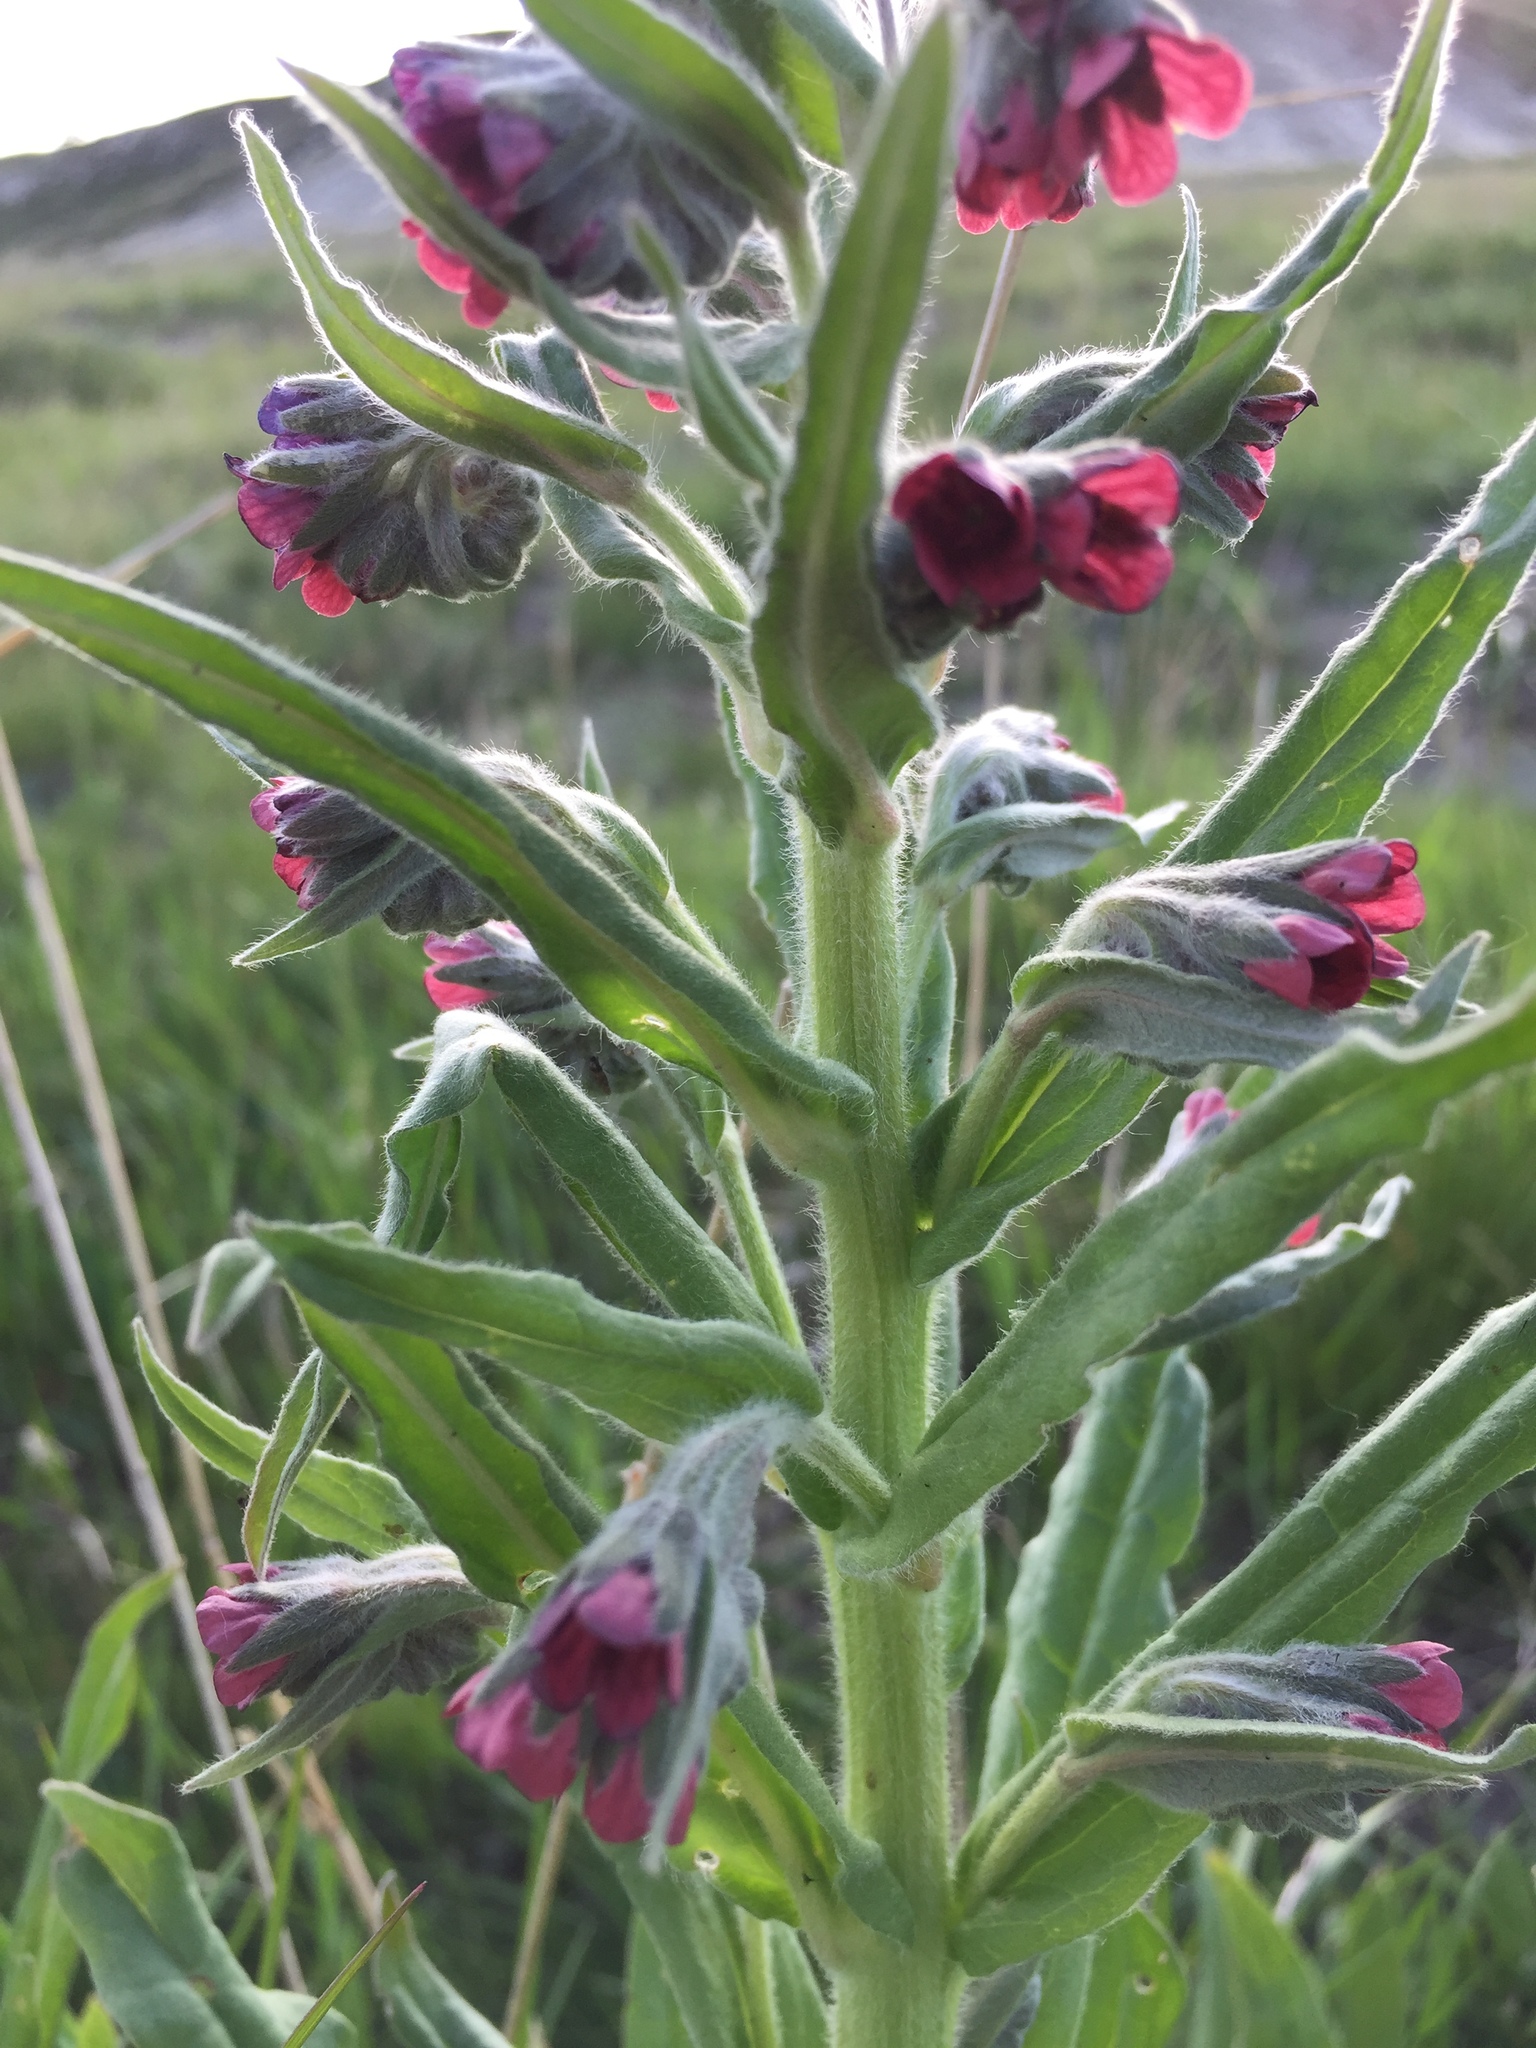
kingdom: Plantae
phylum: Tracheophyta
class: Magnoliopsida
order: Boraginales
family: Boraginaceae
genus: Cynoglossum
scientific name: Cynoglossum officinale
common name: Hound's-tongue
